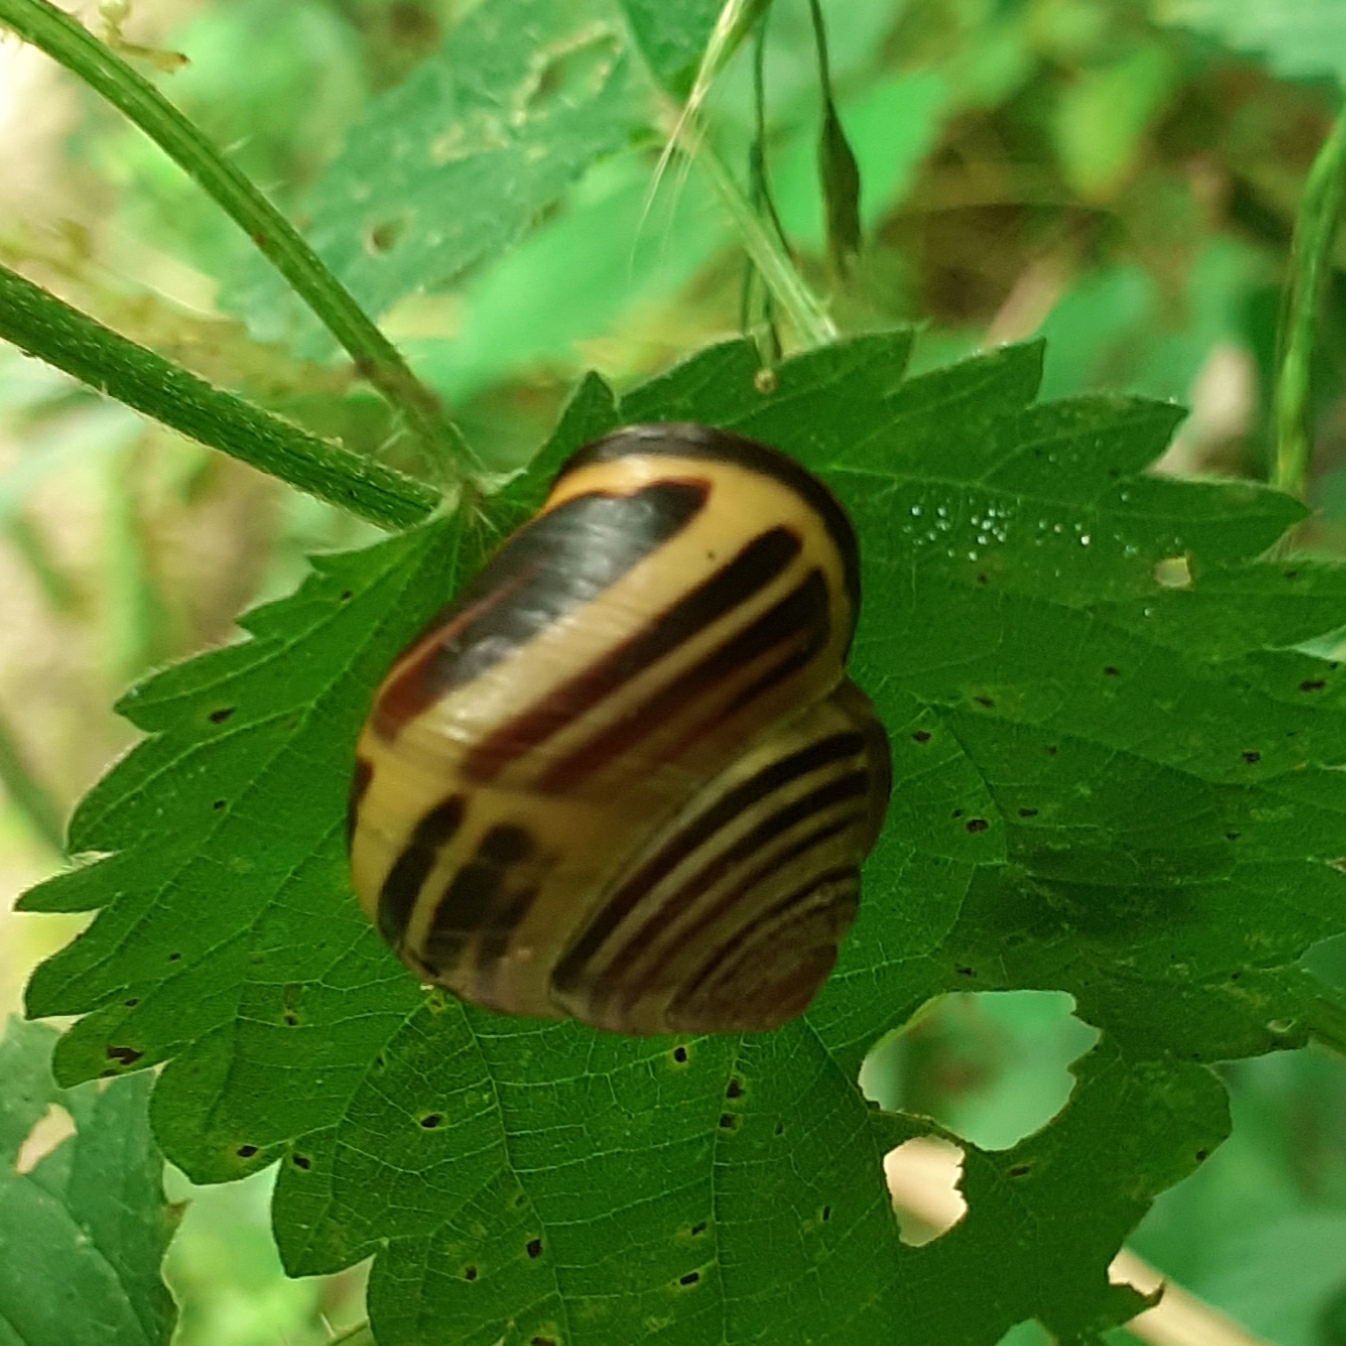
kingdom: Animalia
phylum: Mollusca
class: Gastropoda
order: Stylommatophora
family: Helicidae
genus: Cepaea
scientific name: Cepaea nemoralis
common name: Grovesnail
